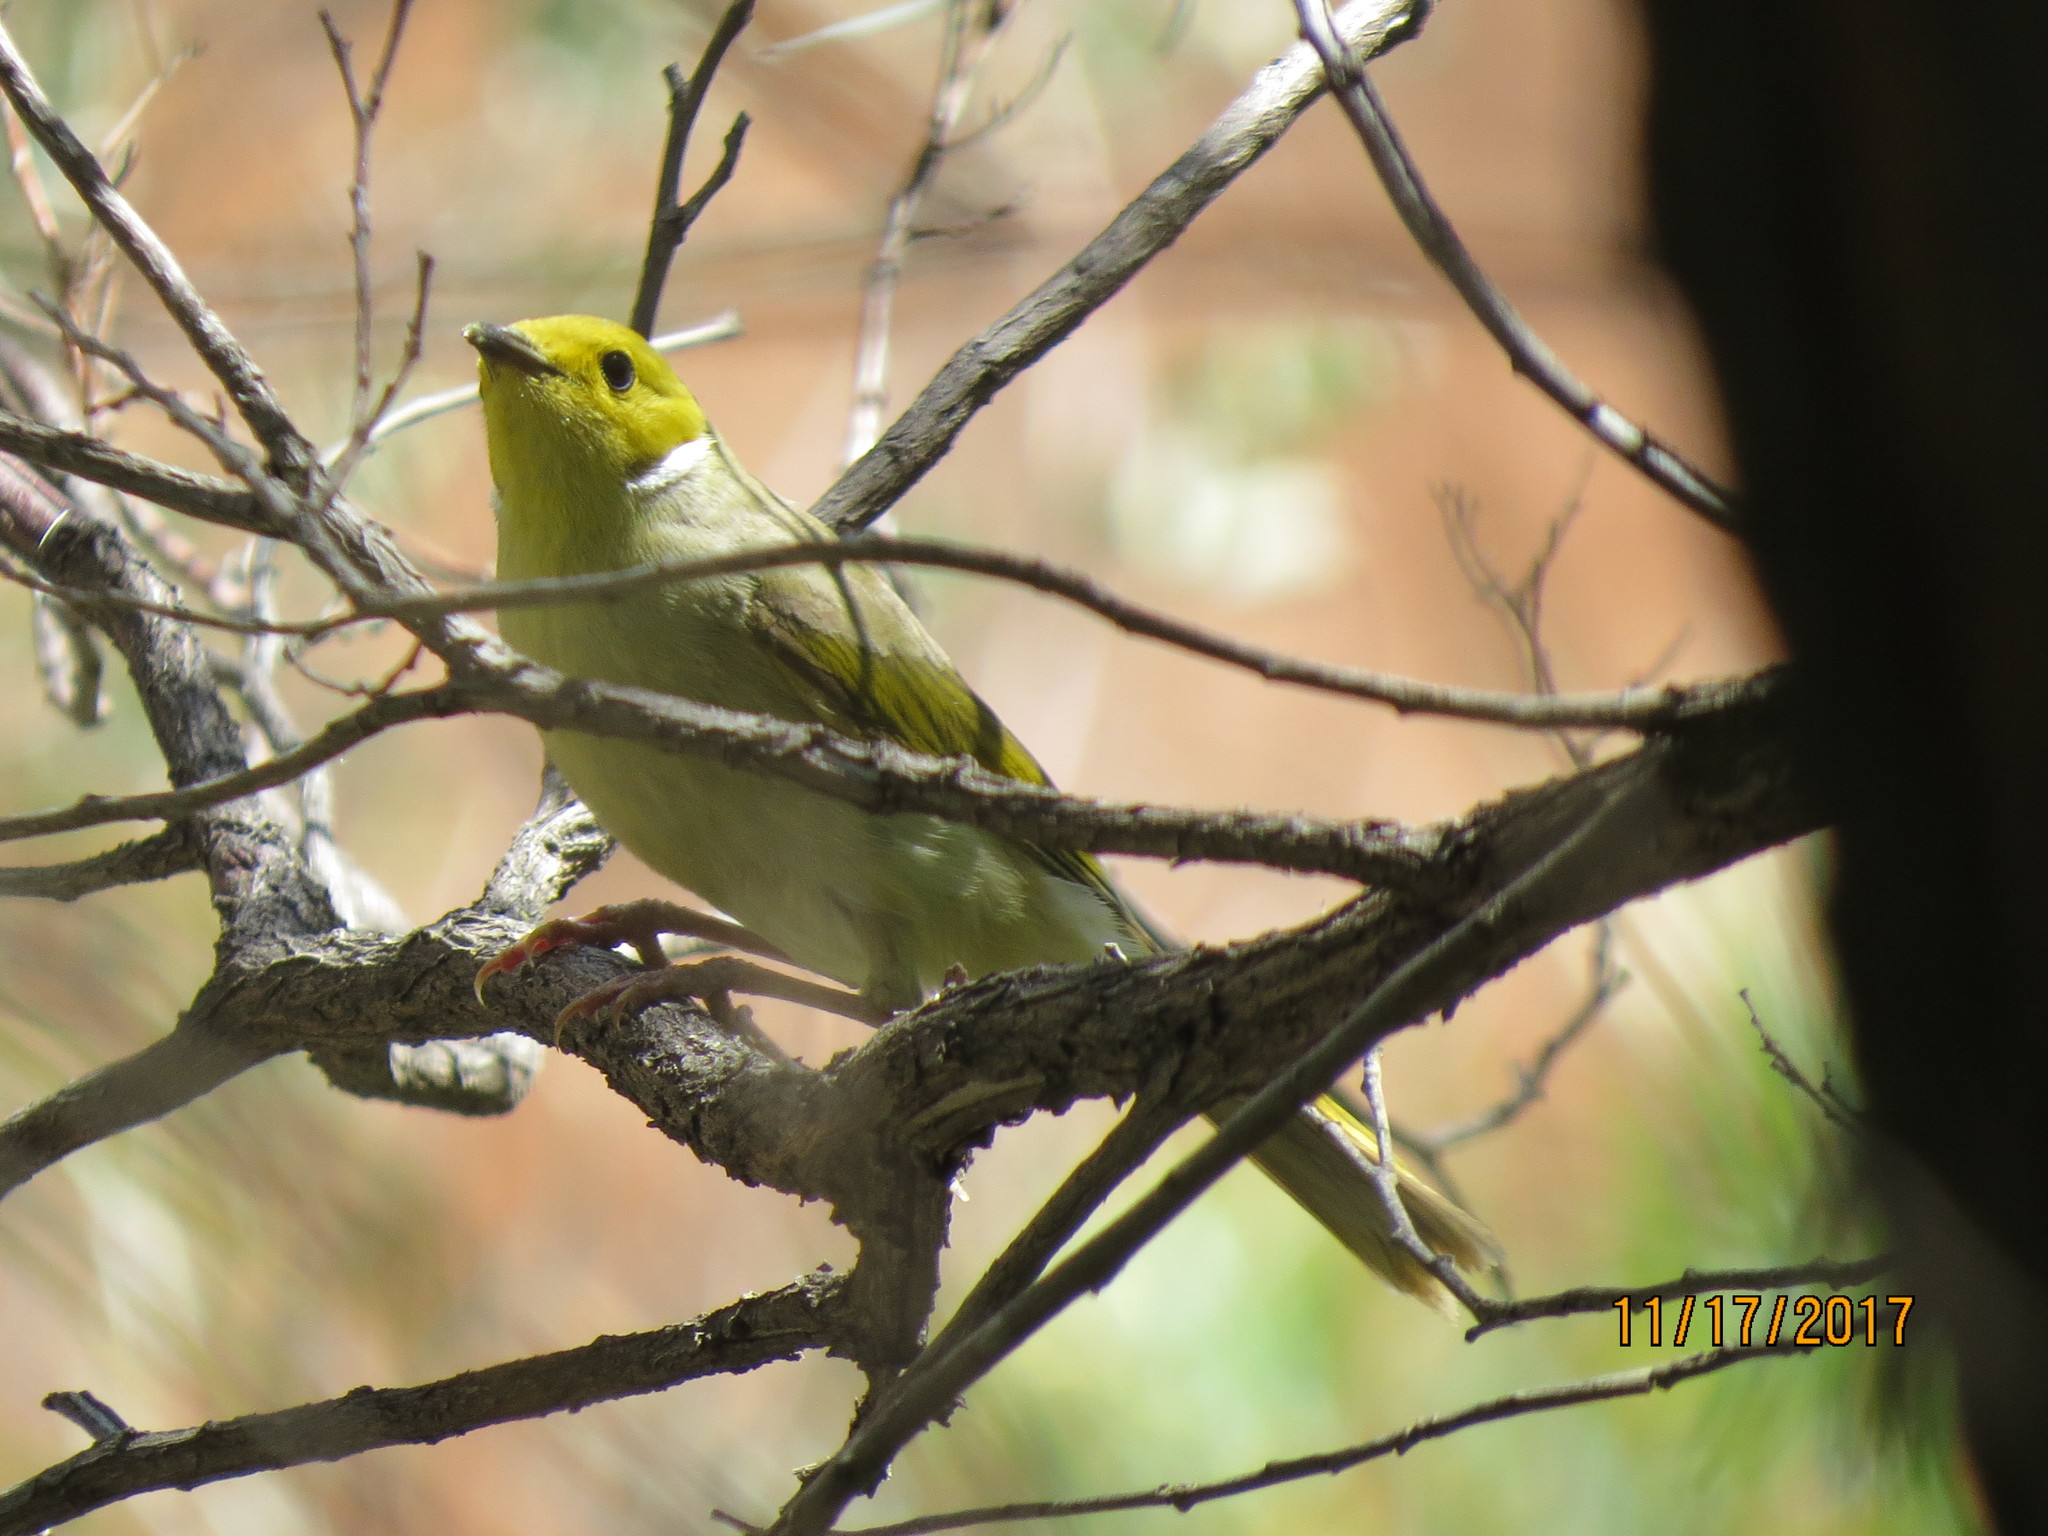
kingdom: Animalia
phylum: Chordata
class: Aves
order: Passeriformes
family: Meliphagidae
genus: Ptilotula
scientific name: Ptilotula penicillata
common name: White-plumed honeyeater
